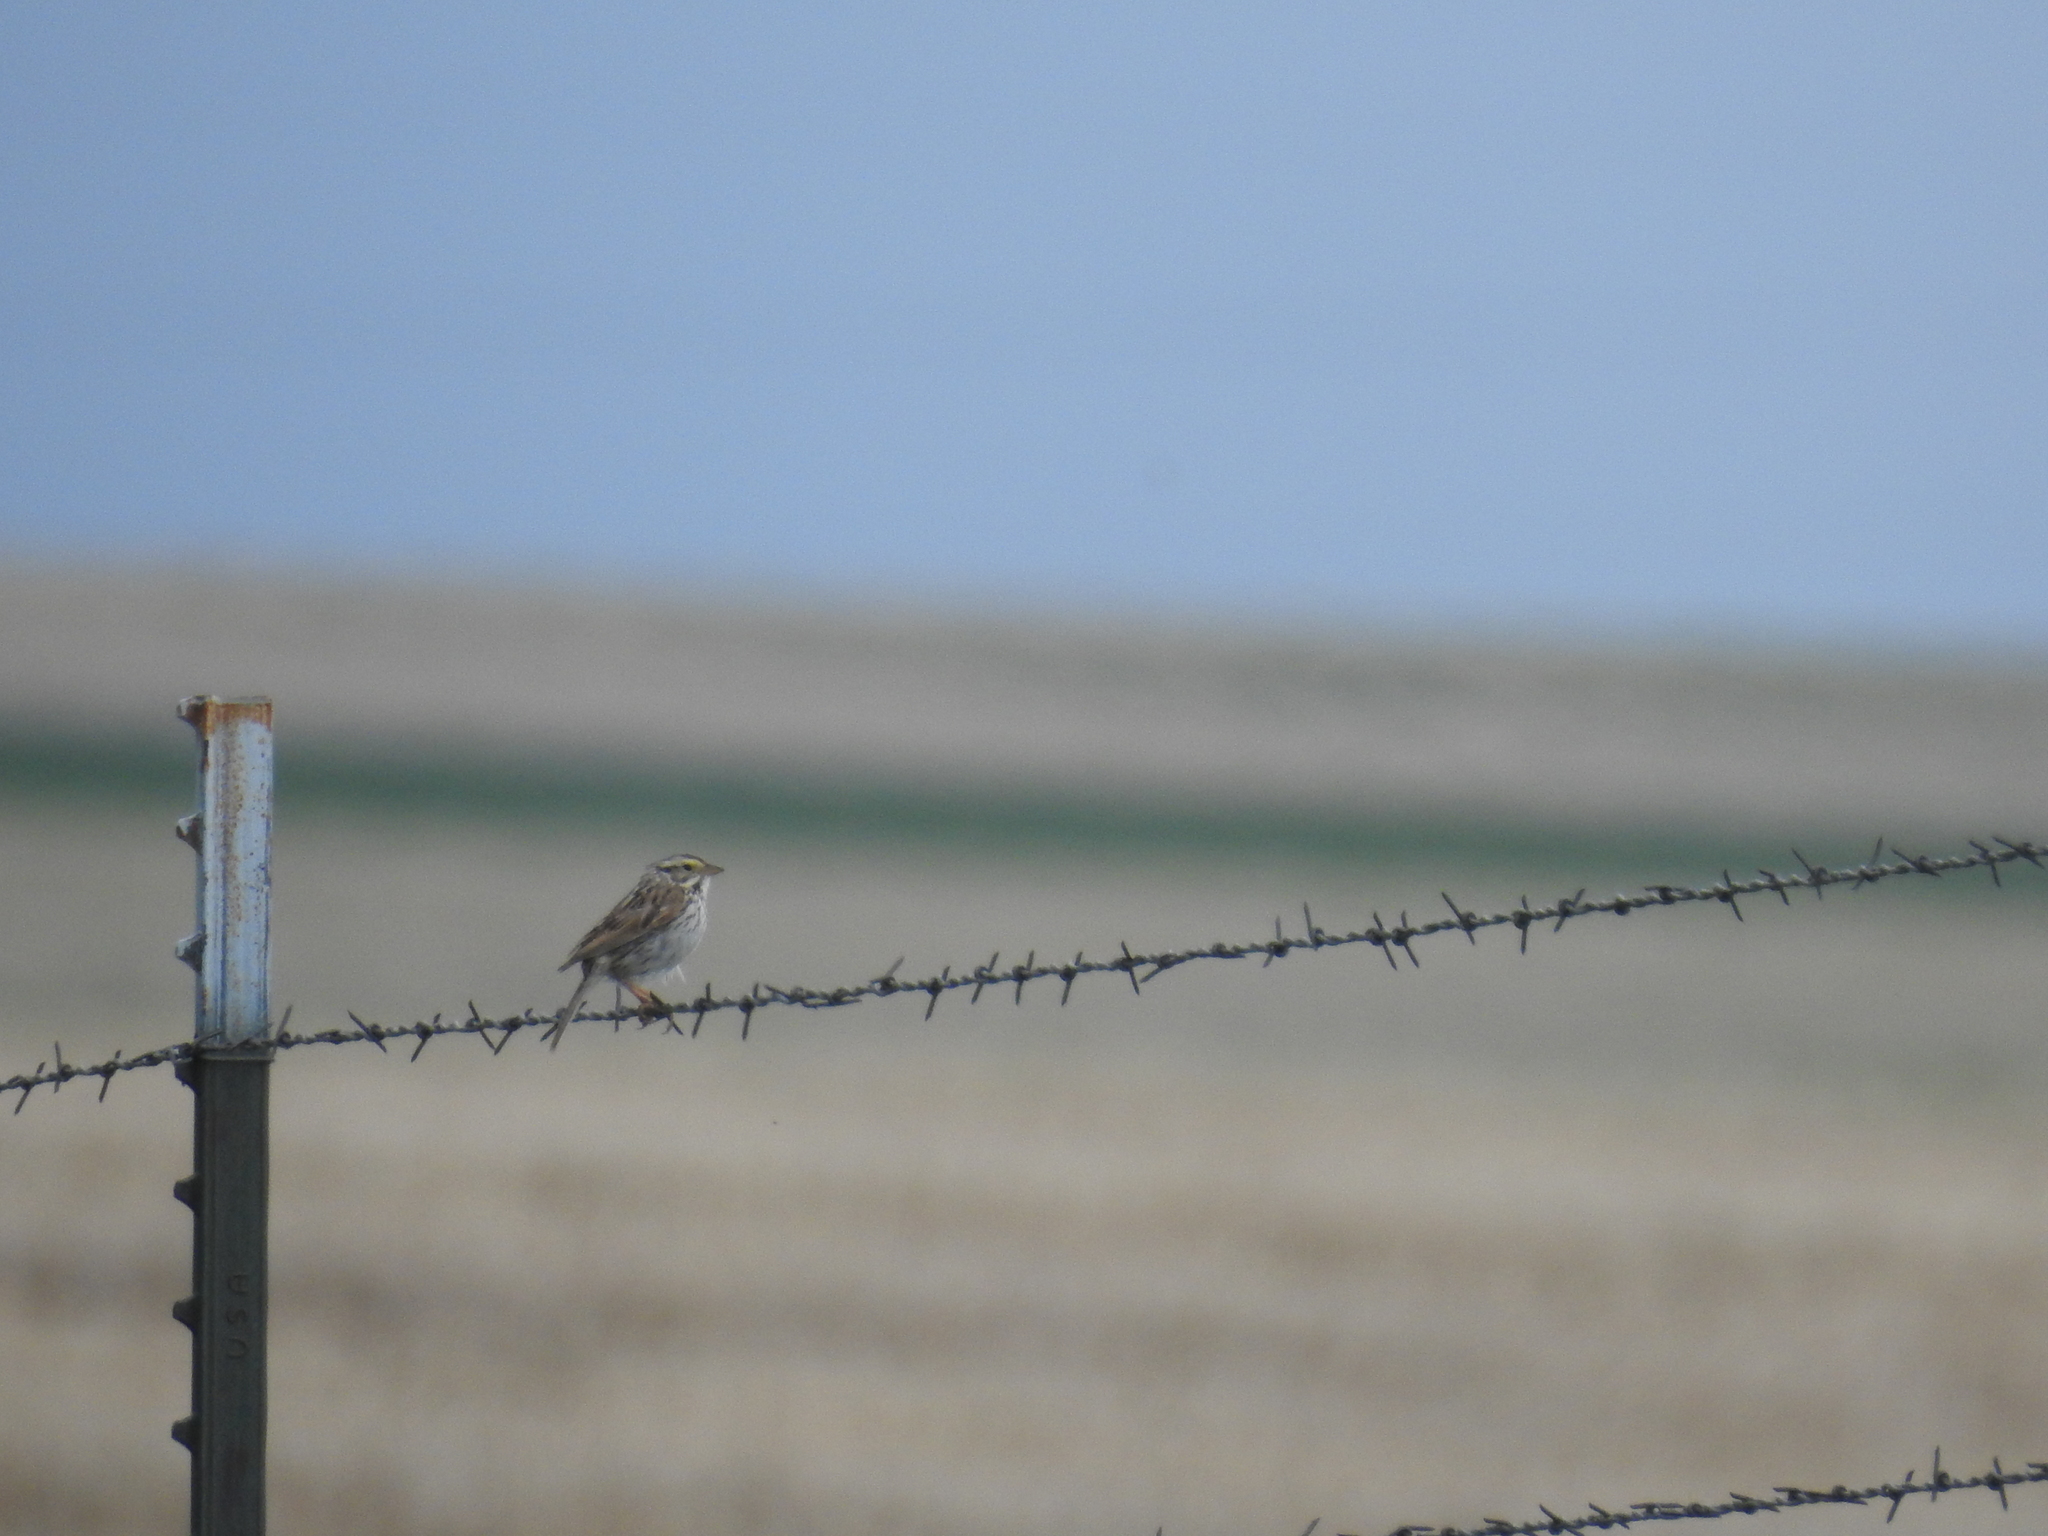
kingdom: Animalia
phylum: Chordata
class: Aves
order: Passeriformes
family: Passerellidae
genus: Passerculus
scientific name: Passerculus sandwichensis
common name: Savannah sparrow
